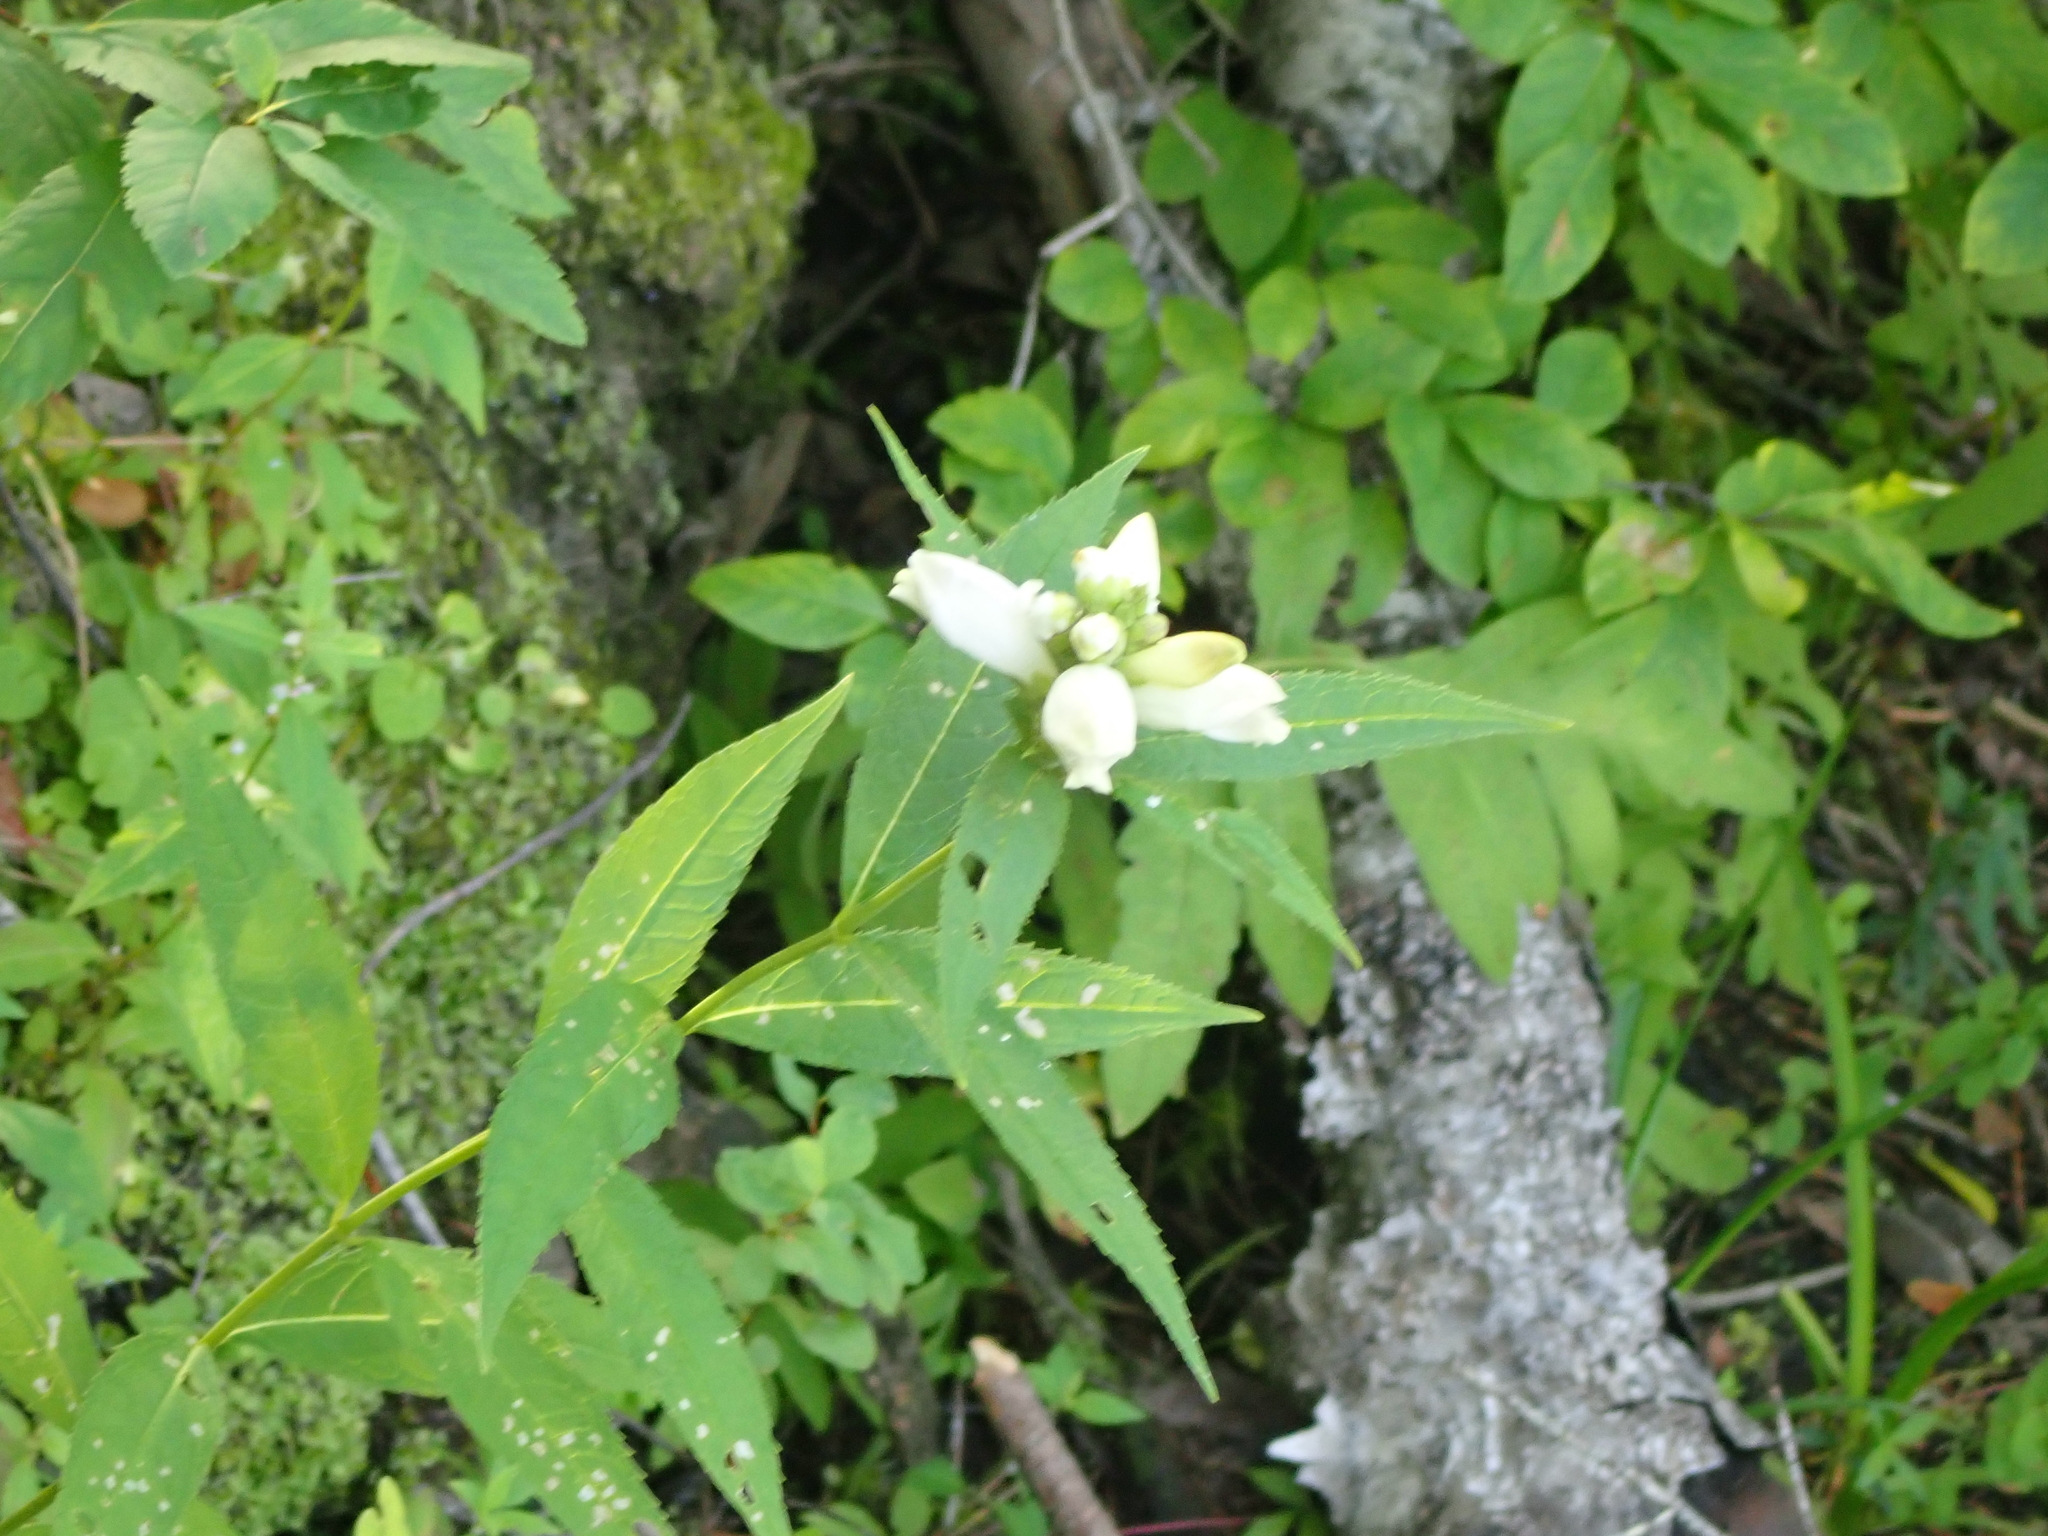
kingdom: Plantae
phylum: Tracheophyta
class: Magnoliopsida
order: Lamiales
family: Plantaginaceae
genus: Chelone
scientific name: Chelone glabra
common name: Snakehead
